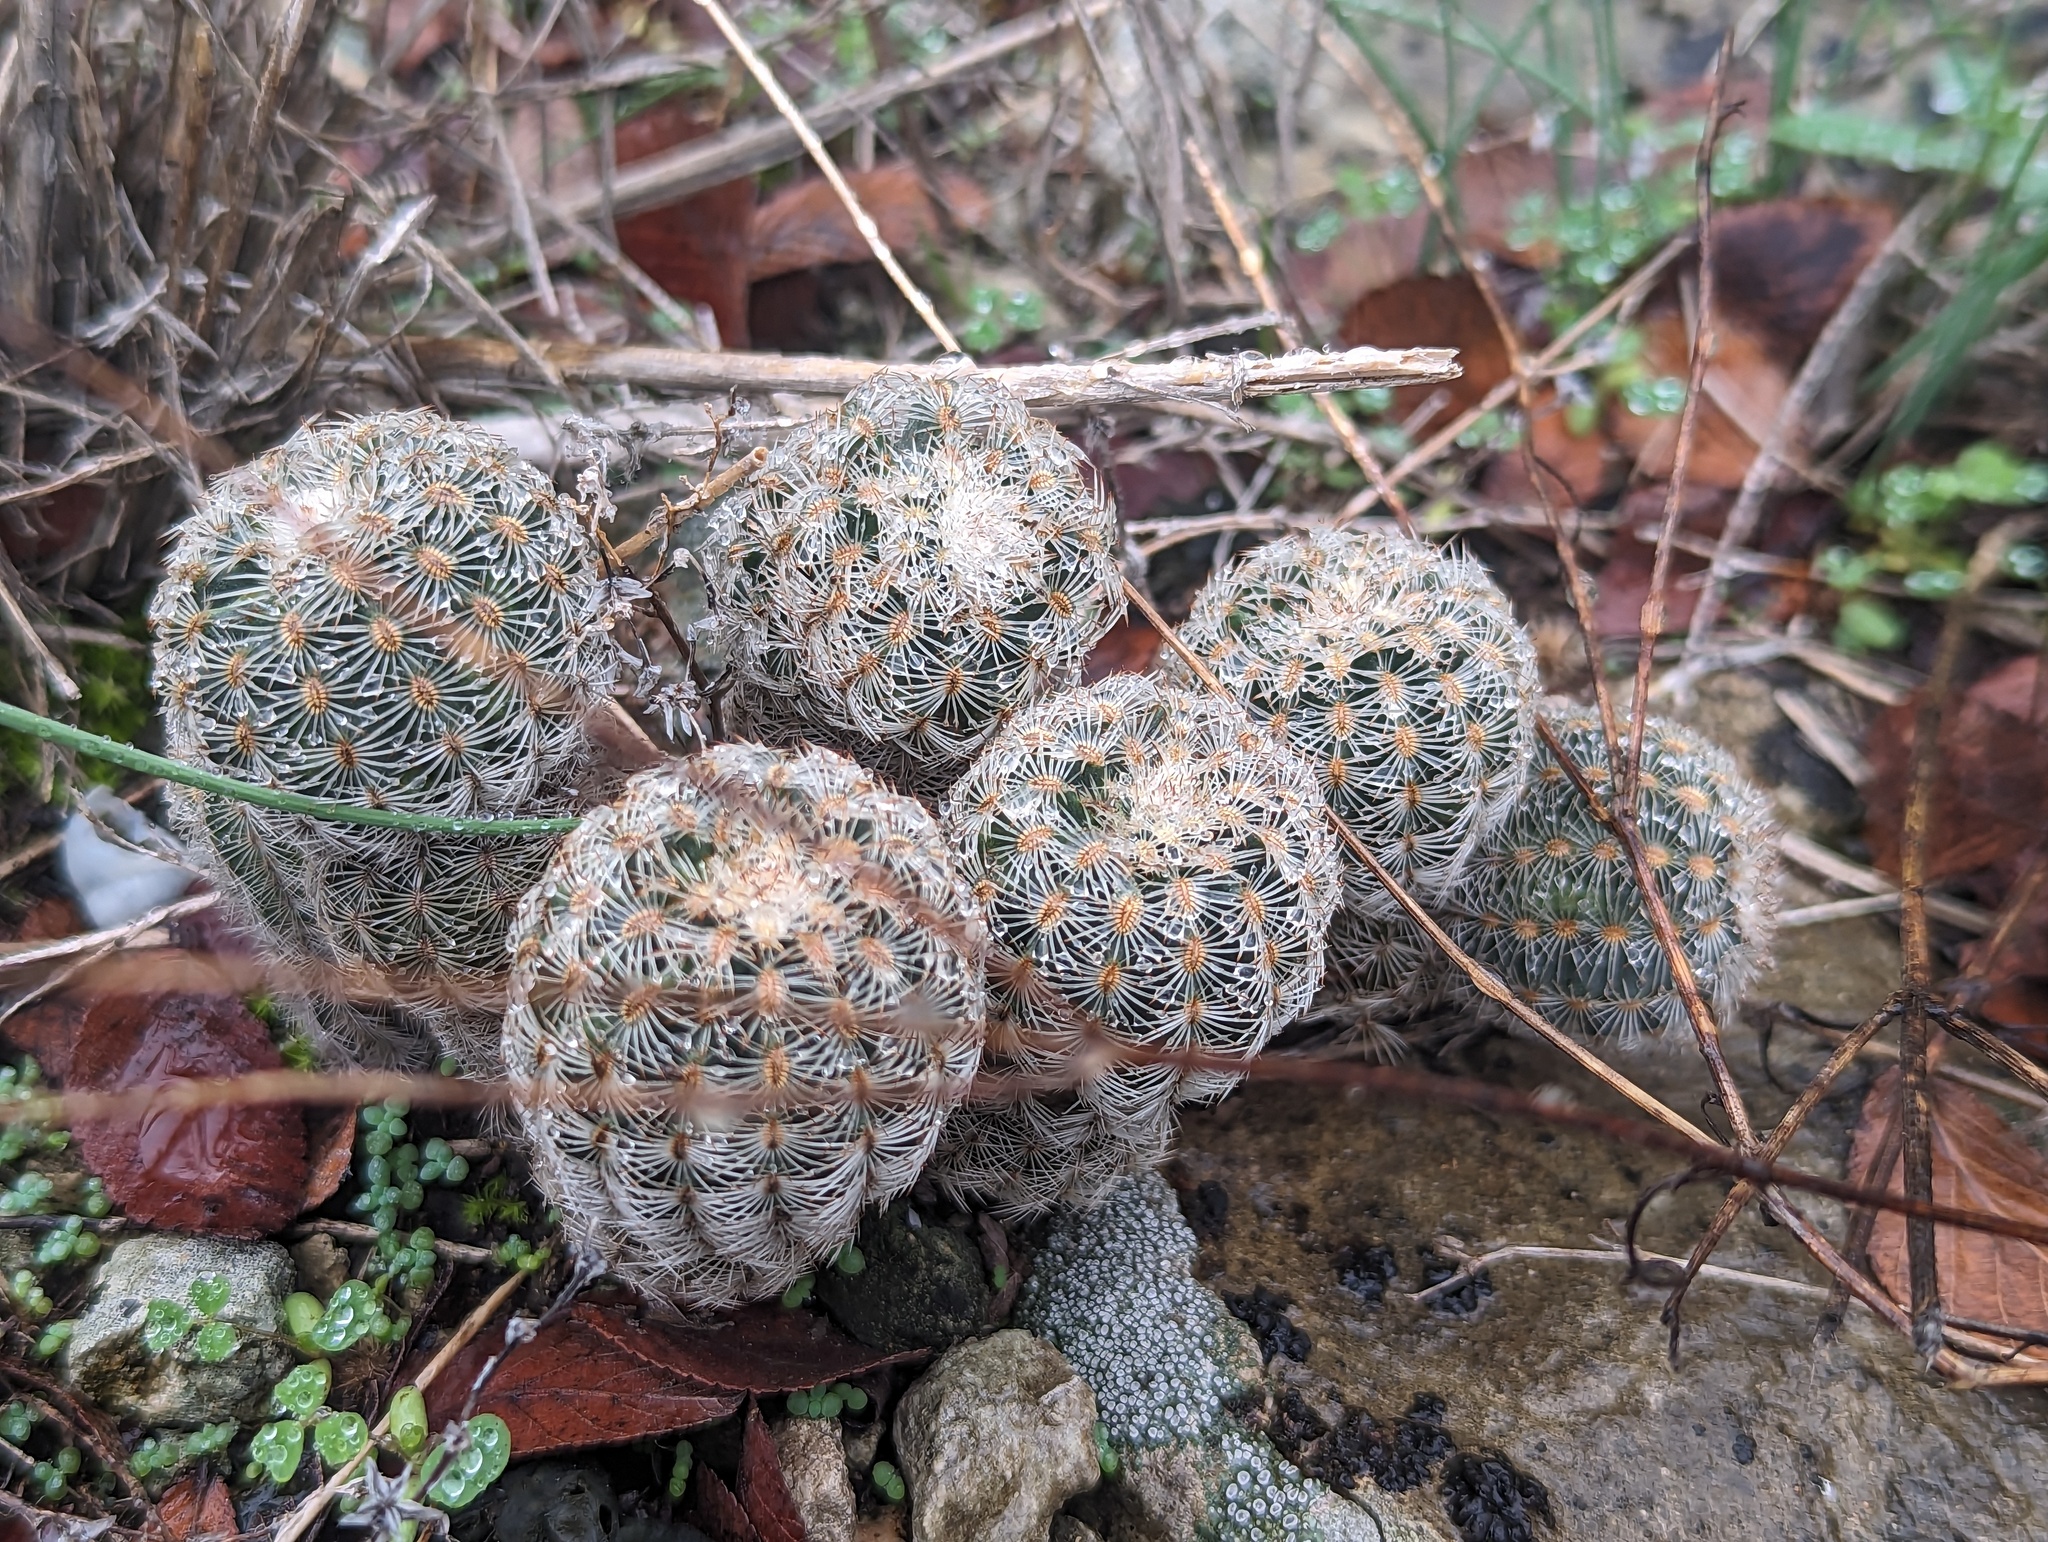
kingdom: Plantae
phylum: Tracheophyta
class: Magnoliopsida
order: Caryophyllales
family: Cactaceae
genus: Echinocereus
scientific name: Echinocereus reichenbachii
